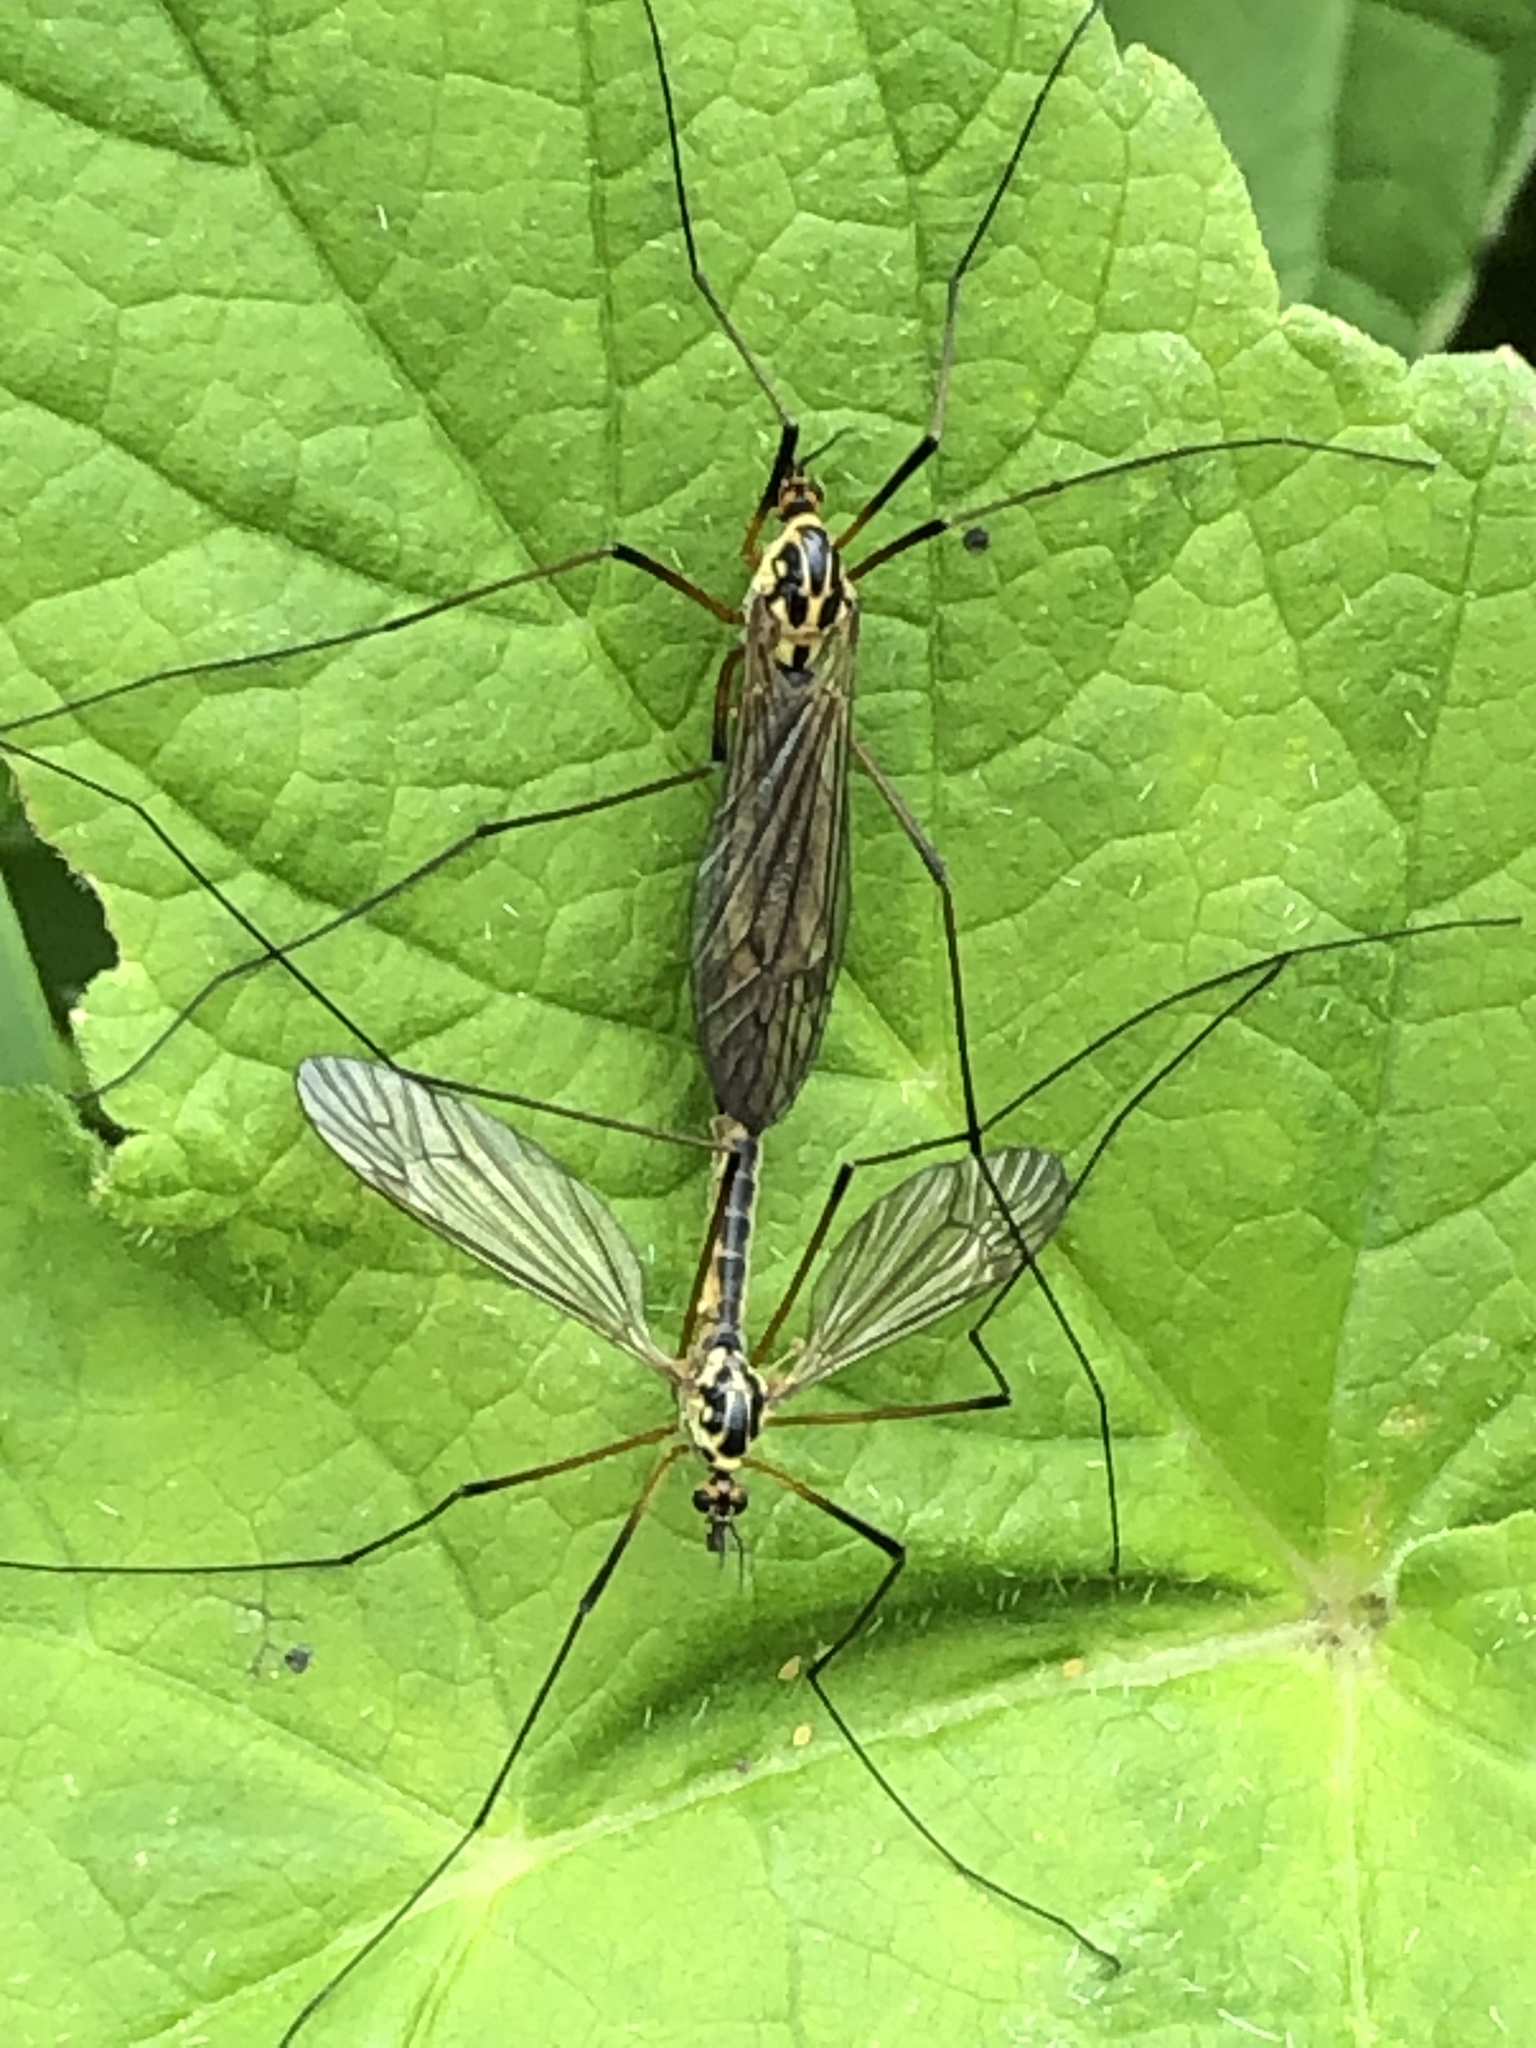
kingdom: Animalia
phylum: Arthropoda
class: Insecta
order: Diptera
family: Tipulidae
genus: Nephrotoma
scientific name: Nephrotoma appendiculata
